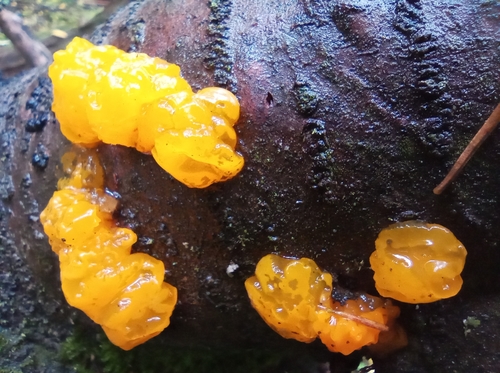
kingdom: Fungi
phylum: Basidiomycota
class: Tremellomycetes
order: Tremellales
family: Tremellaceae
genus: Tremella
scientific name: Tremella mesenterica
